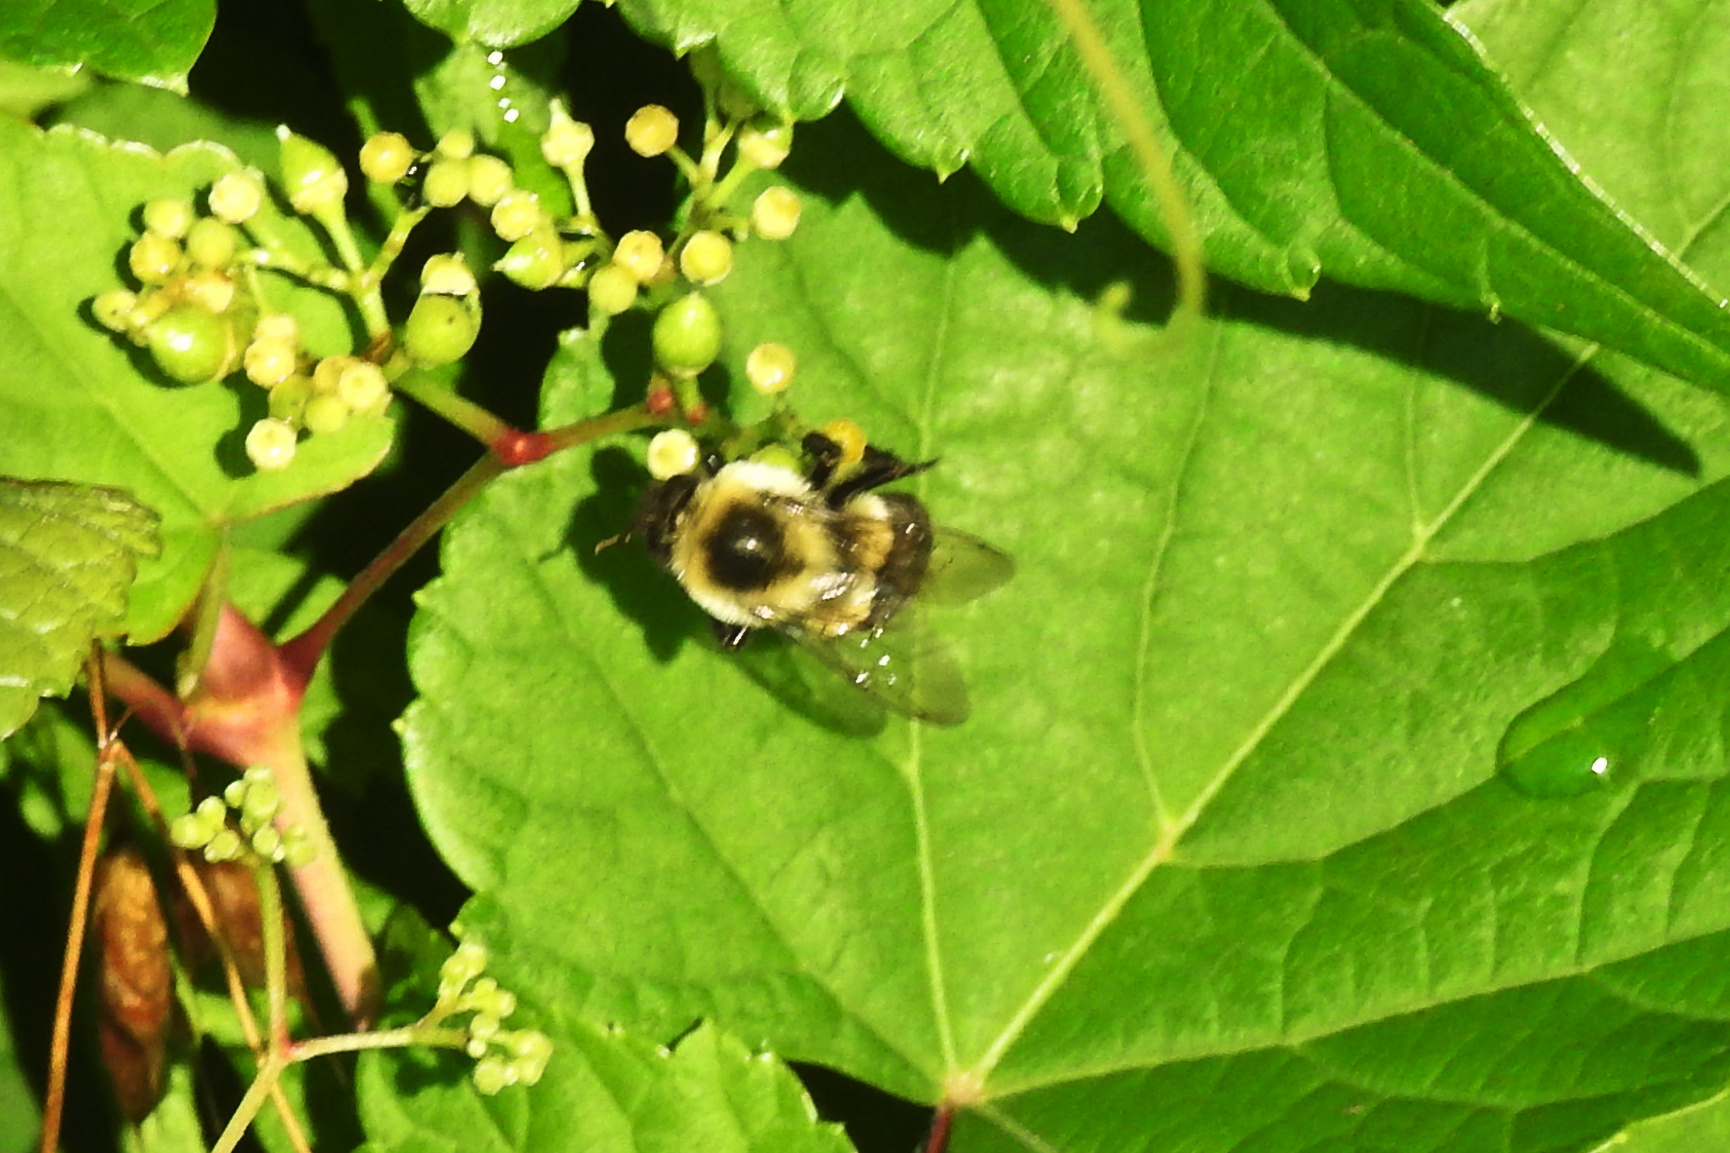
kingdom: Animalia
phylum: Arthropoda
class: Insecta
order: Hymenoptera
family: Apidae
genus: Bombus
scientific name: Bombus impatiens
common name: Common eastern bumble bee
